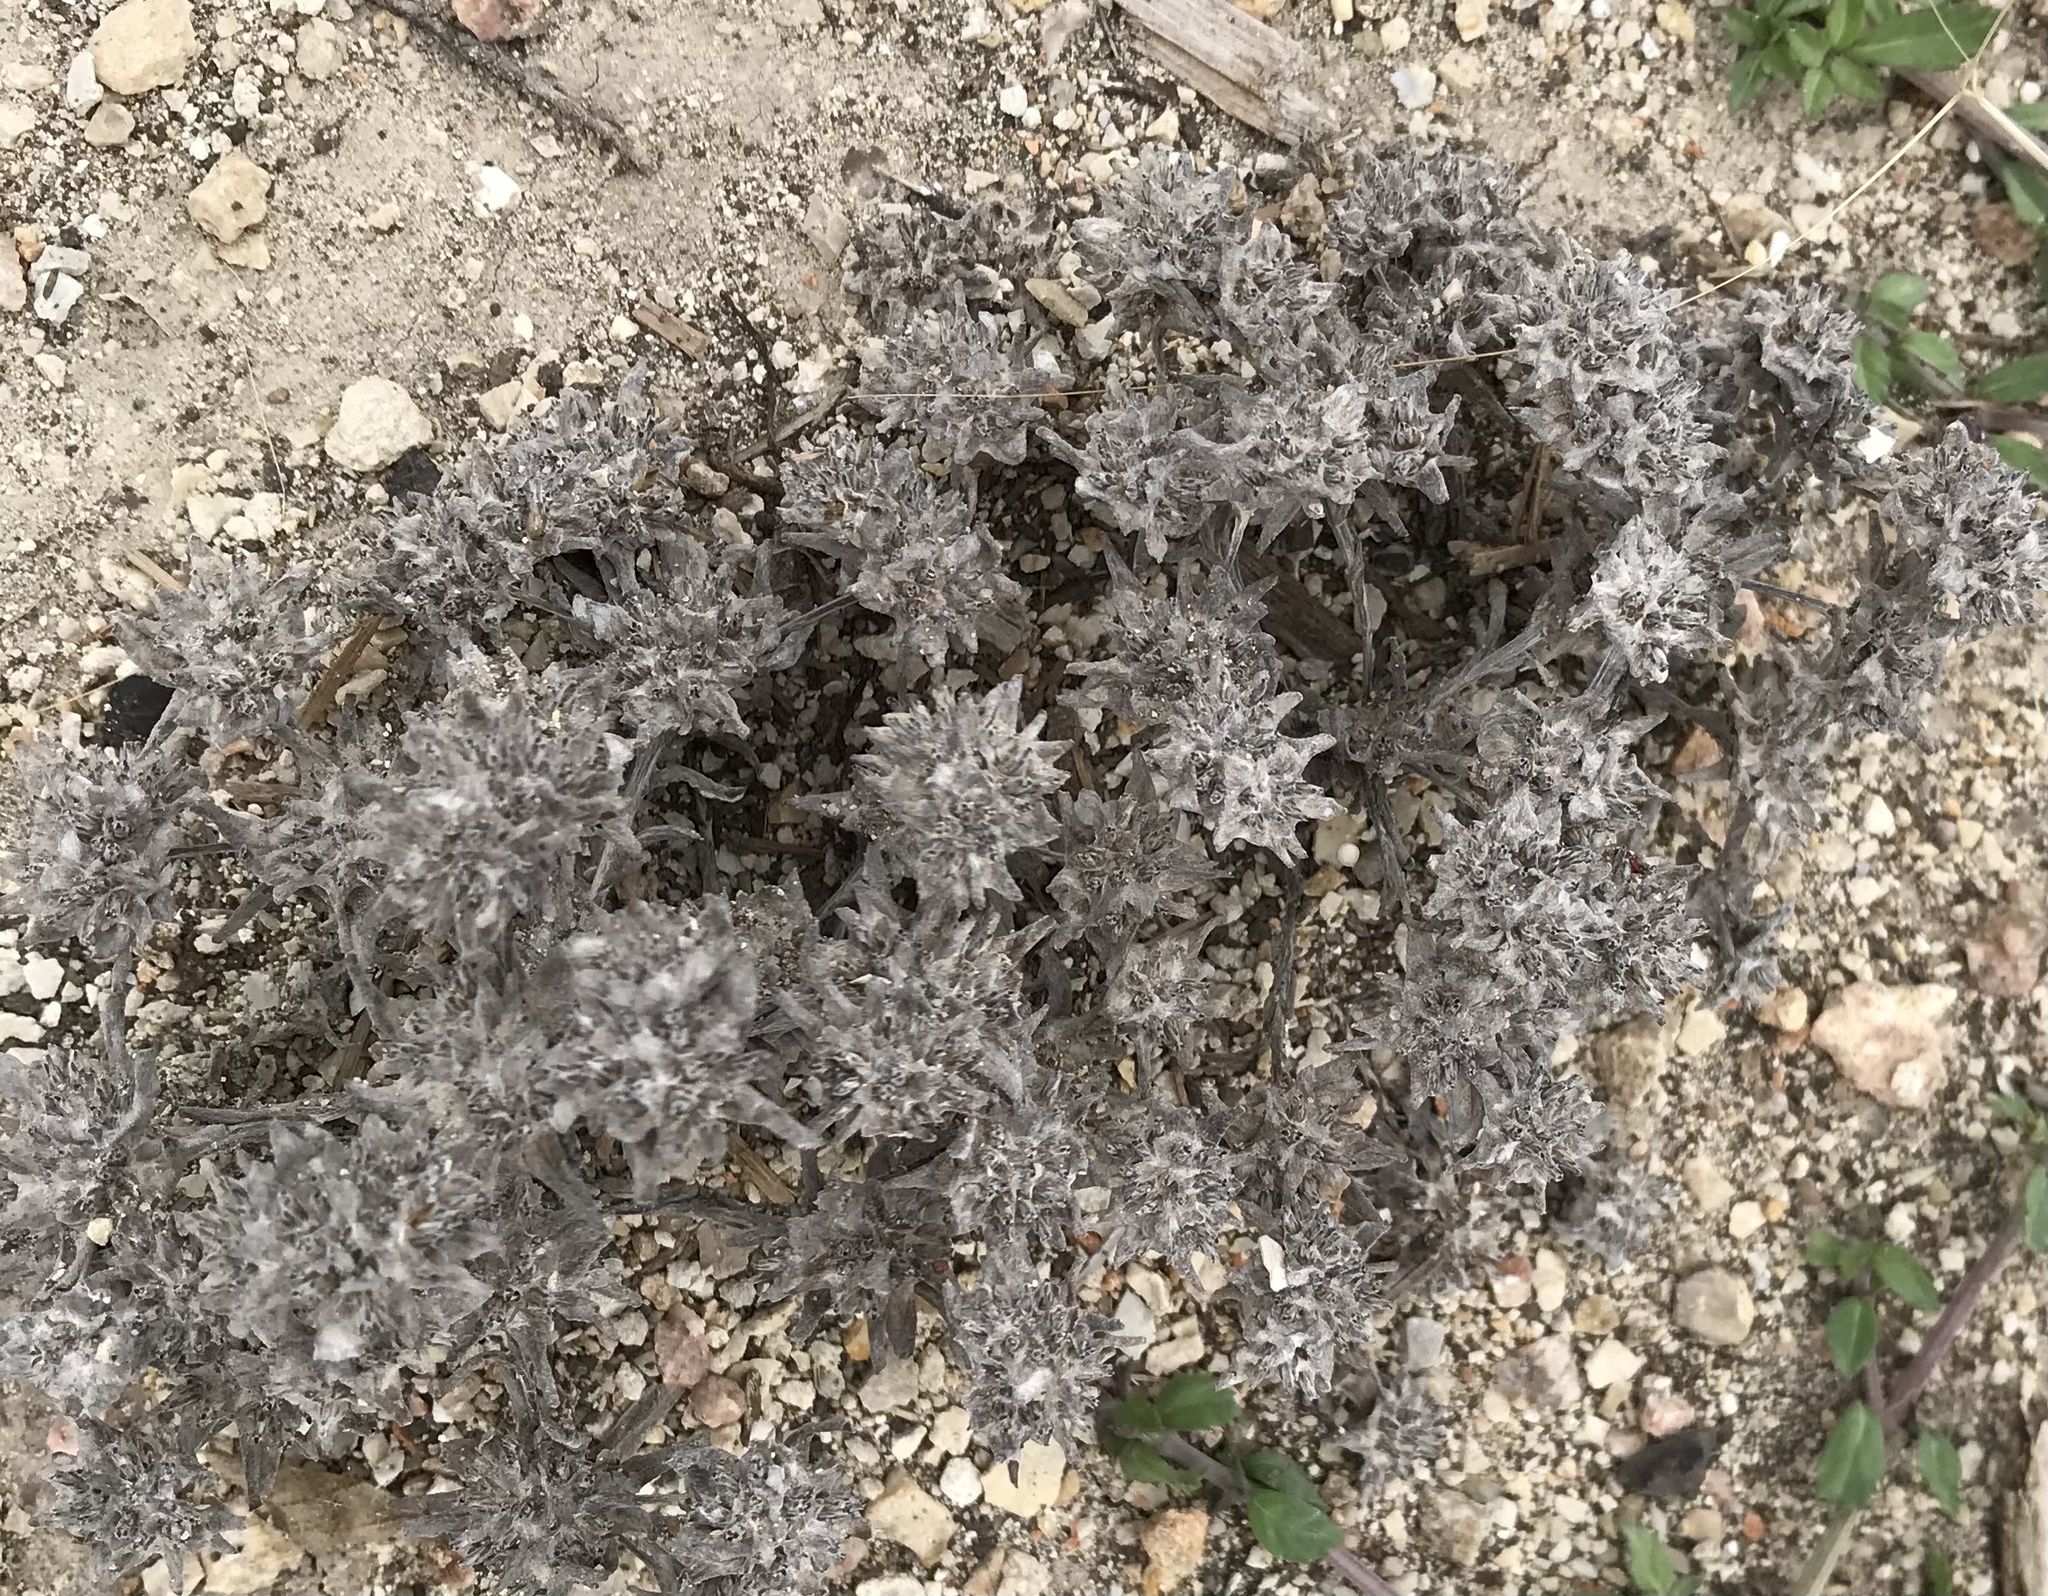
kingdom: Plantae
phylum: Tracheophyta
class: Magnoliopsida
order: Asterales
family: Asteraceae
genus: Diaperia
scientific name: Diaperia prolifera
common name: Big-head rabbit-tobacco
